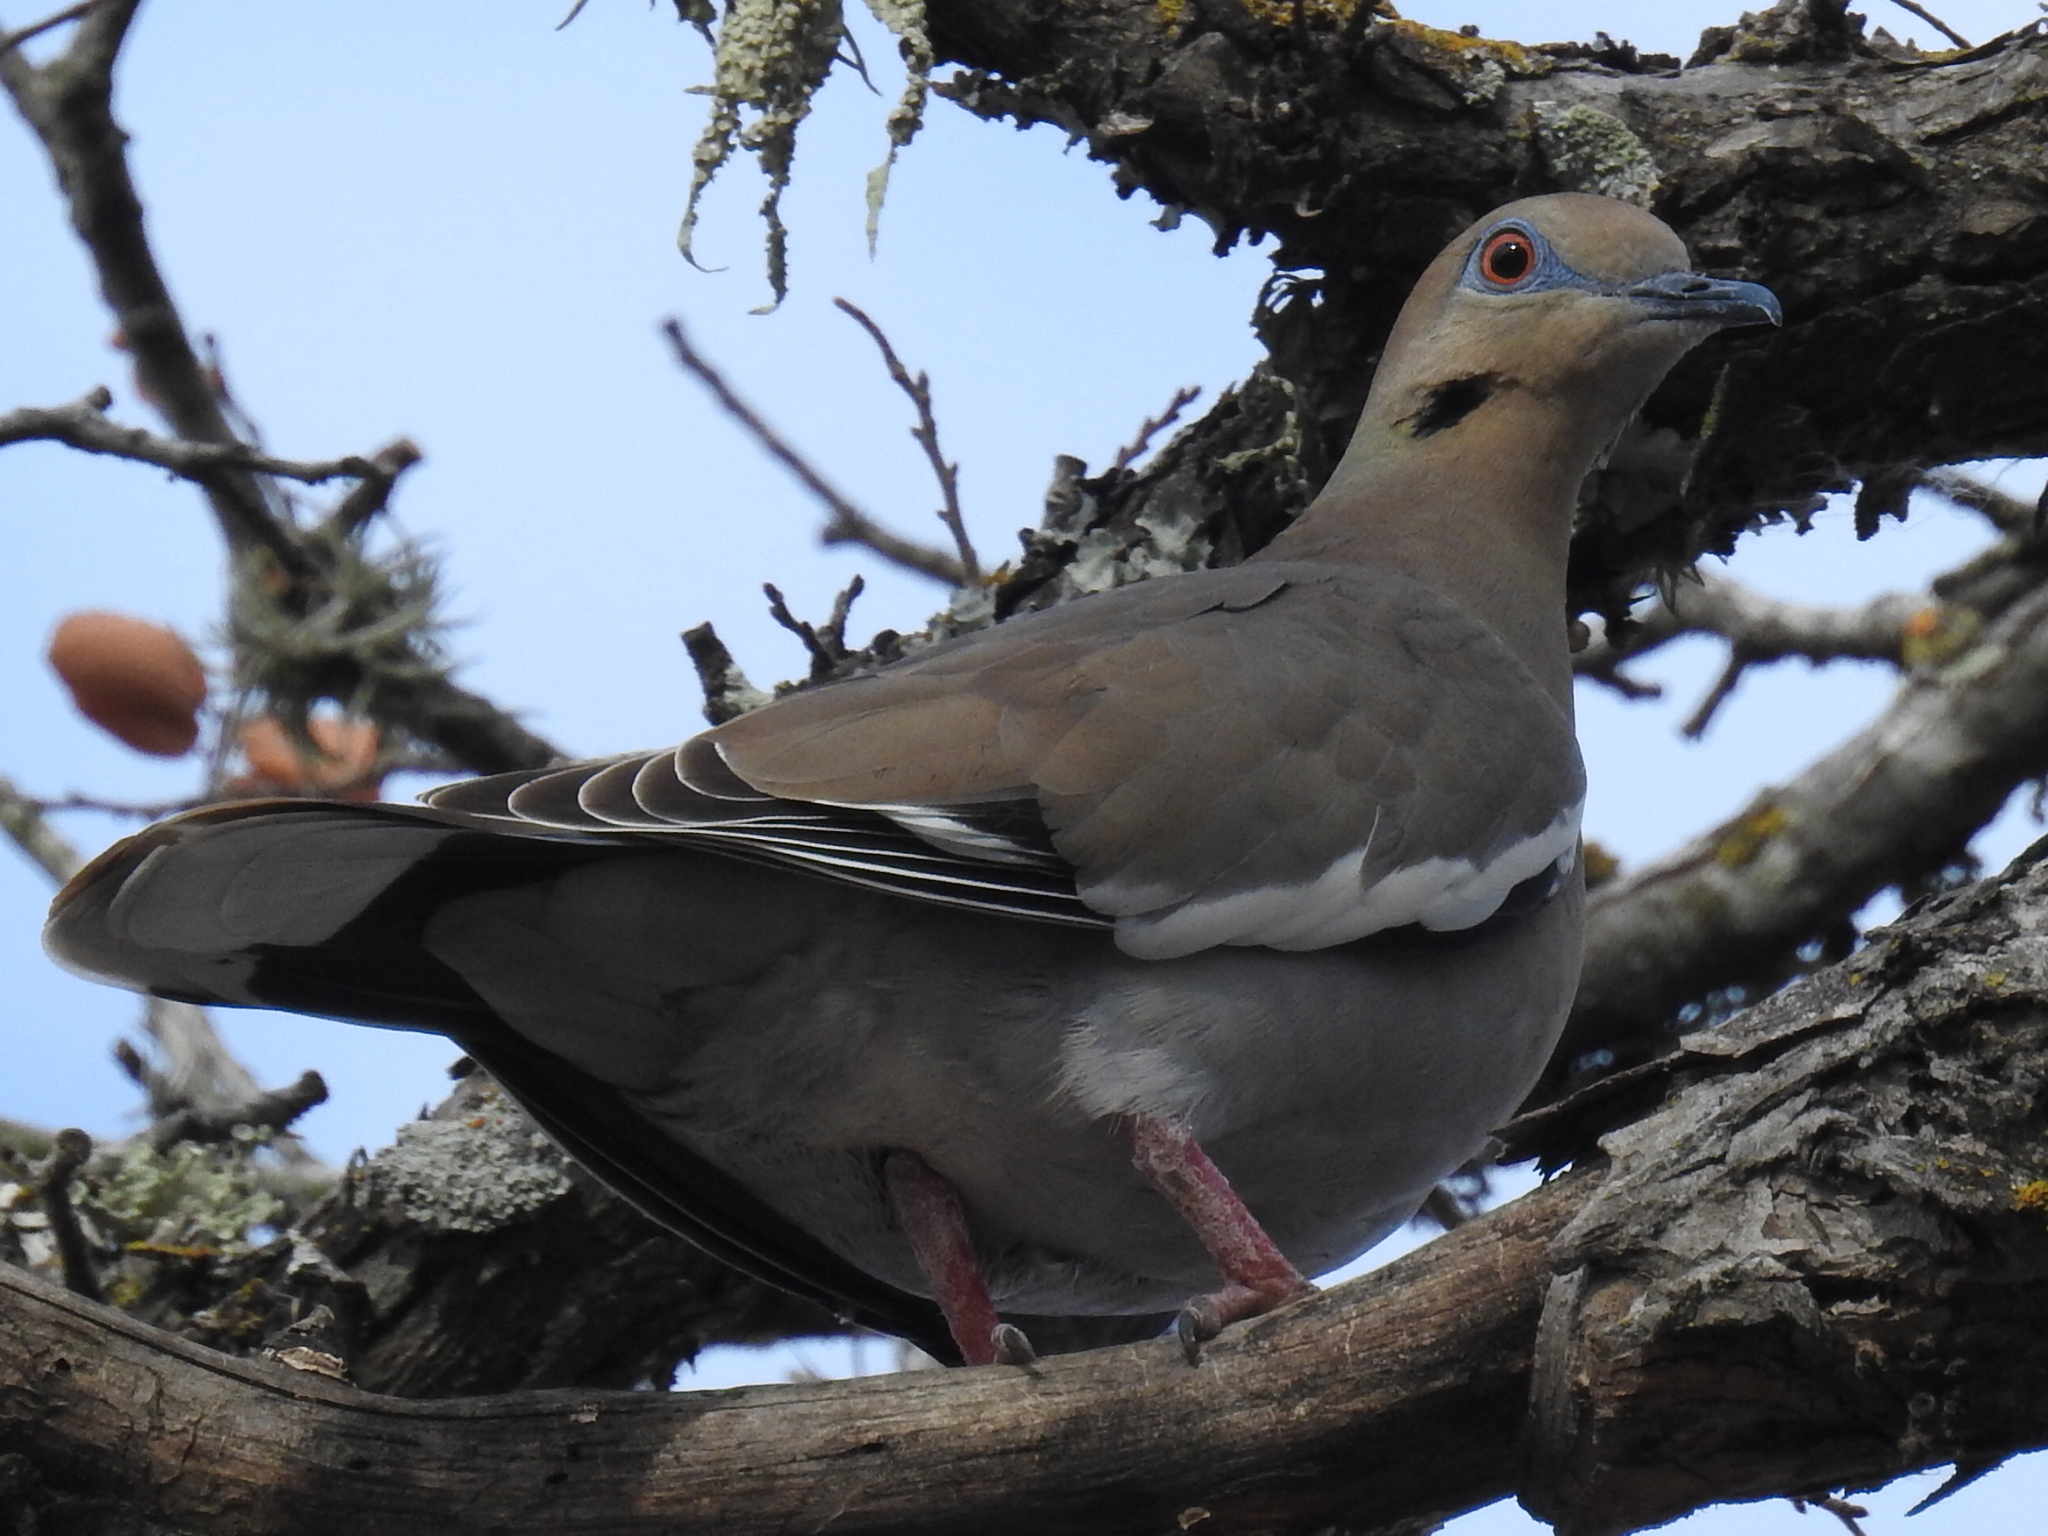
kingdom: Animalia
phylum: Chordata
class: Aves
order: Columbiformes
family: Columbidae
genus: Zenaida
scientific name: Zenaida asiatica
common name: White-winged dove
